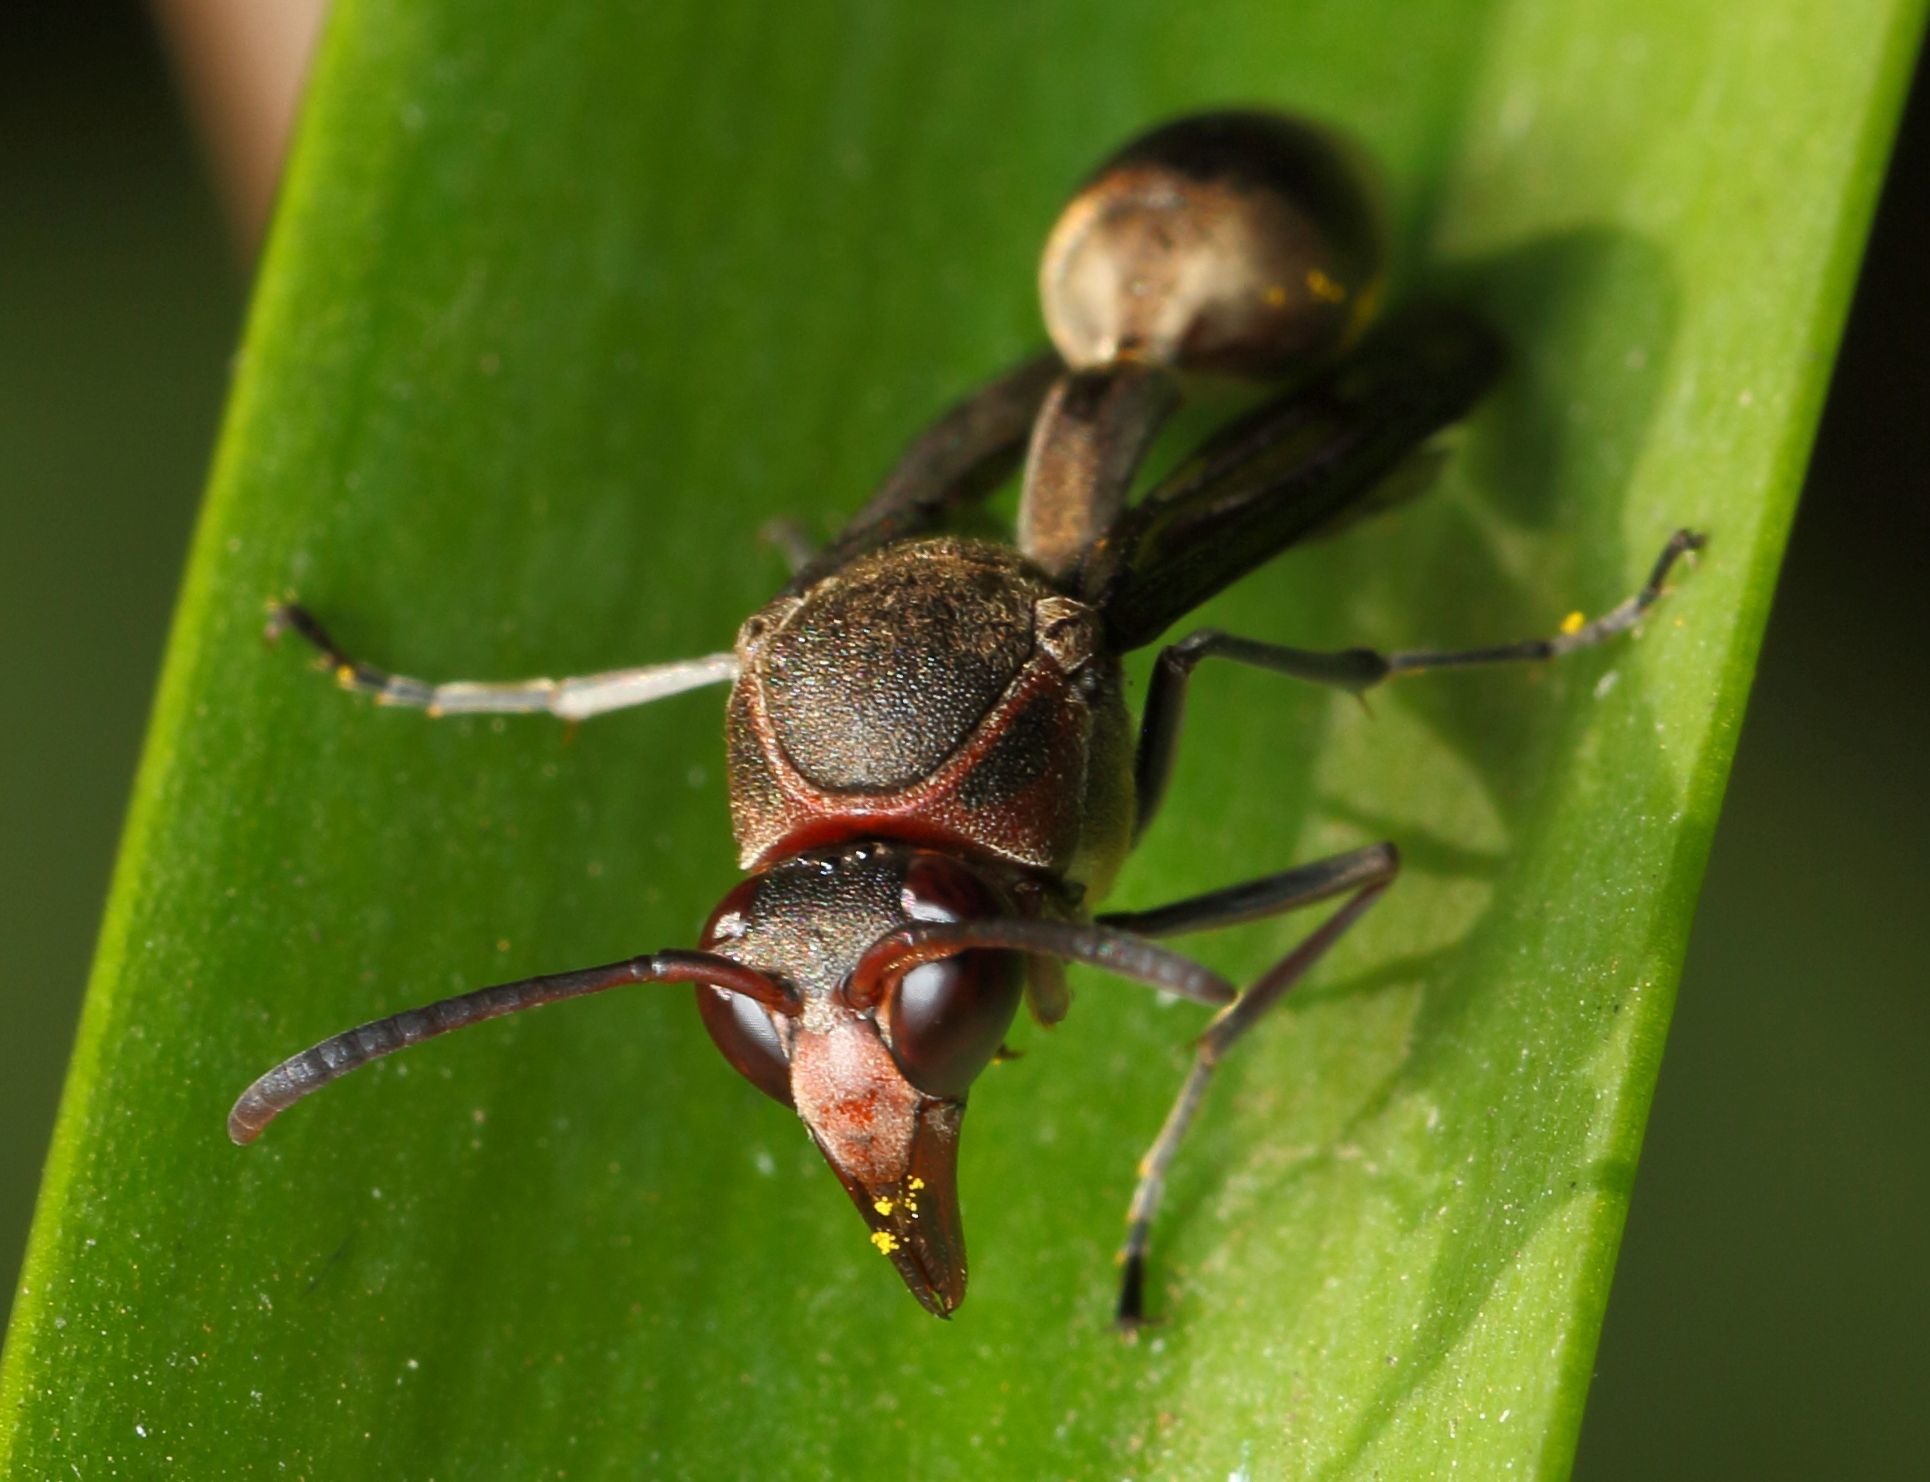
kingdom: Animalia
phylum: Arthropoda
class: Insecta
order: Hymenoptera
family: Eumenidae
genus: Afreumenes
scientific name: Afreumenes
